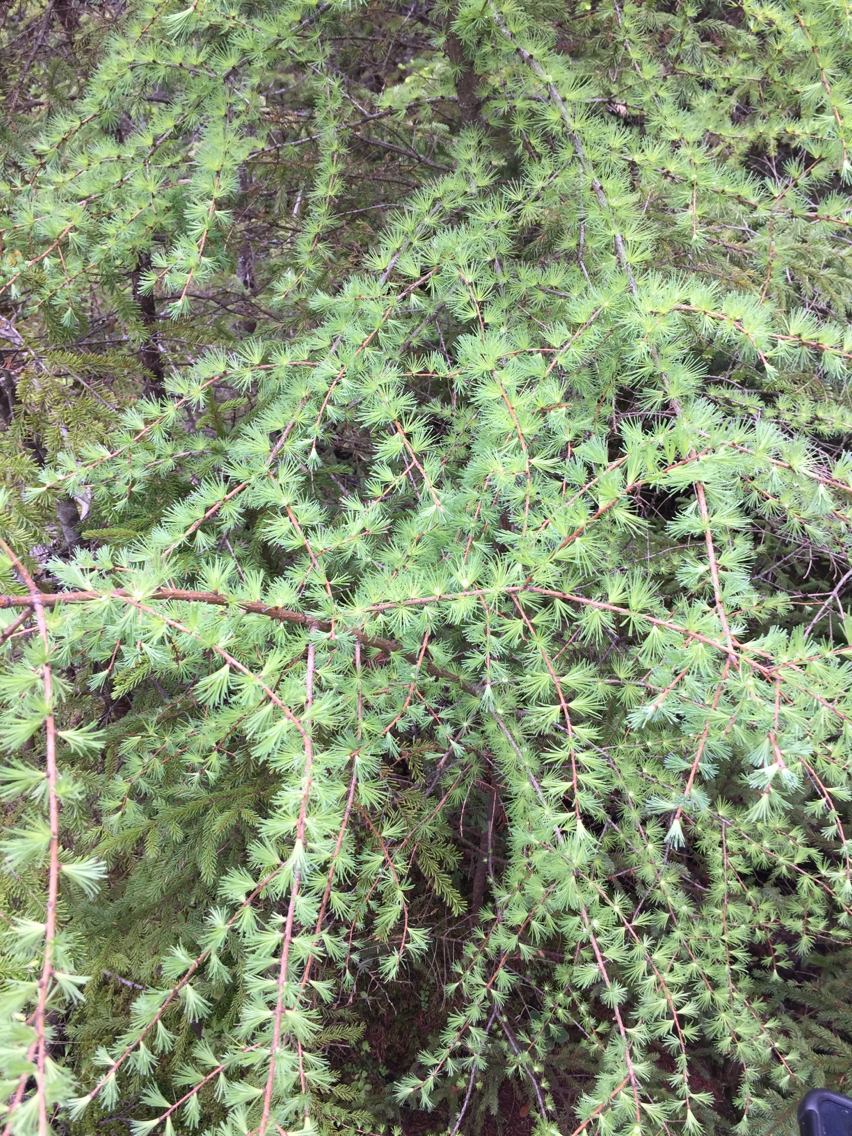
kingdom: Plantae
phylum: Tracheophyta
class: Pinopsida
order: Pinales
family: Pinaceae
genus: Larix
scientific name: Larix laricina
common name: American larch
